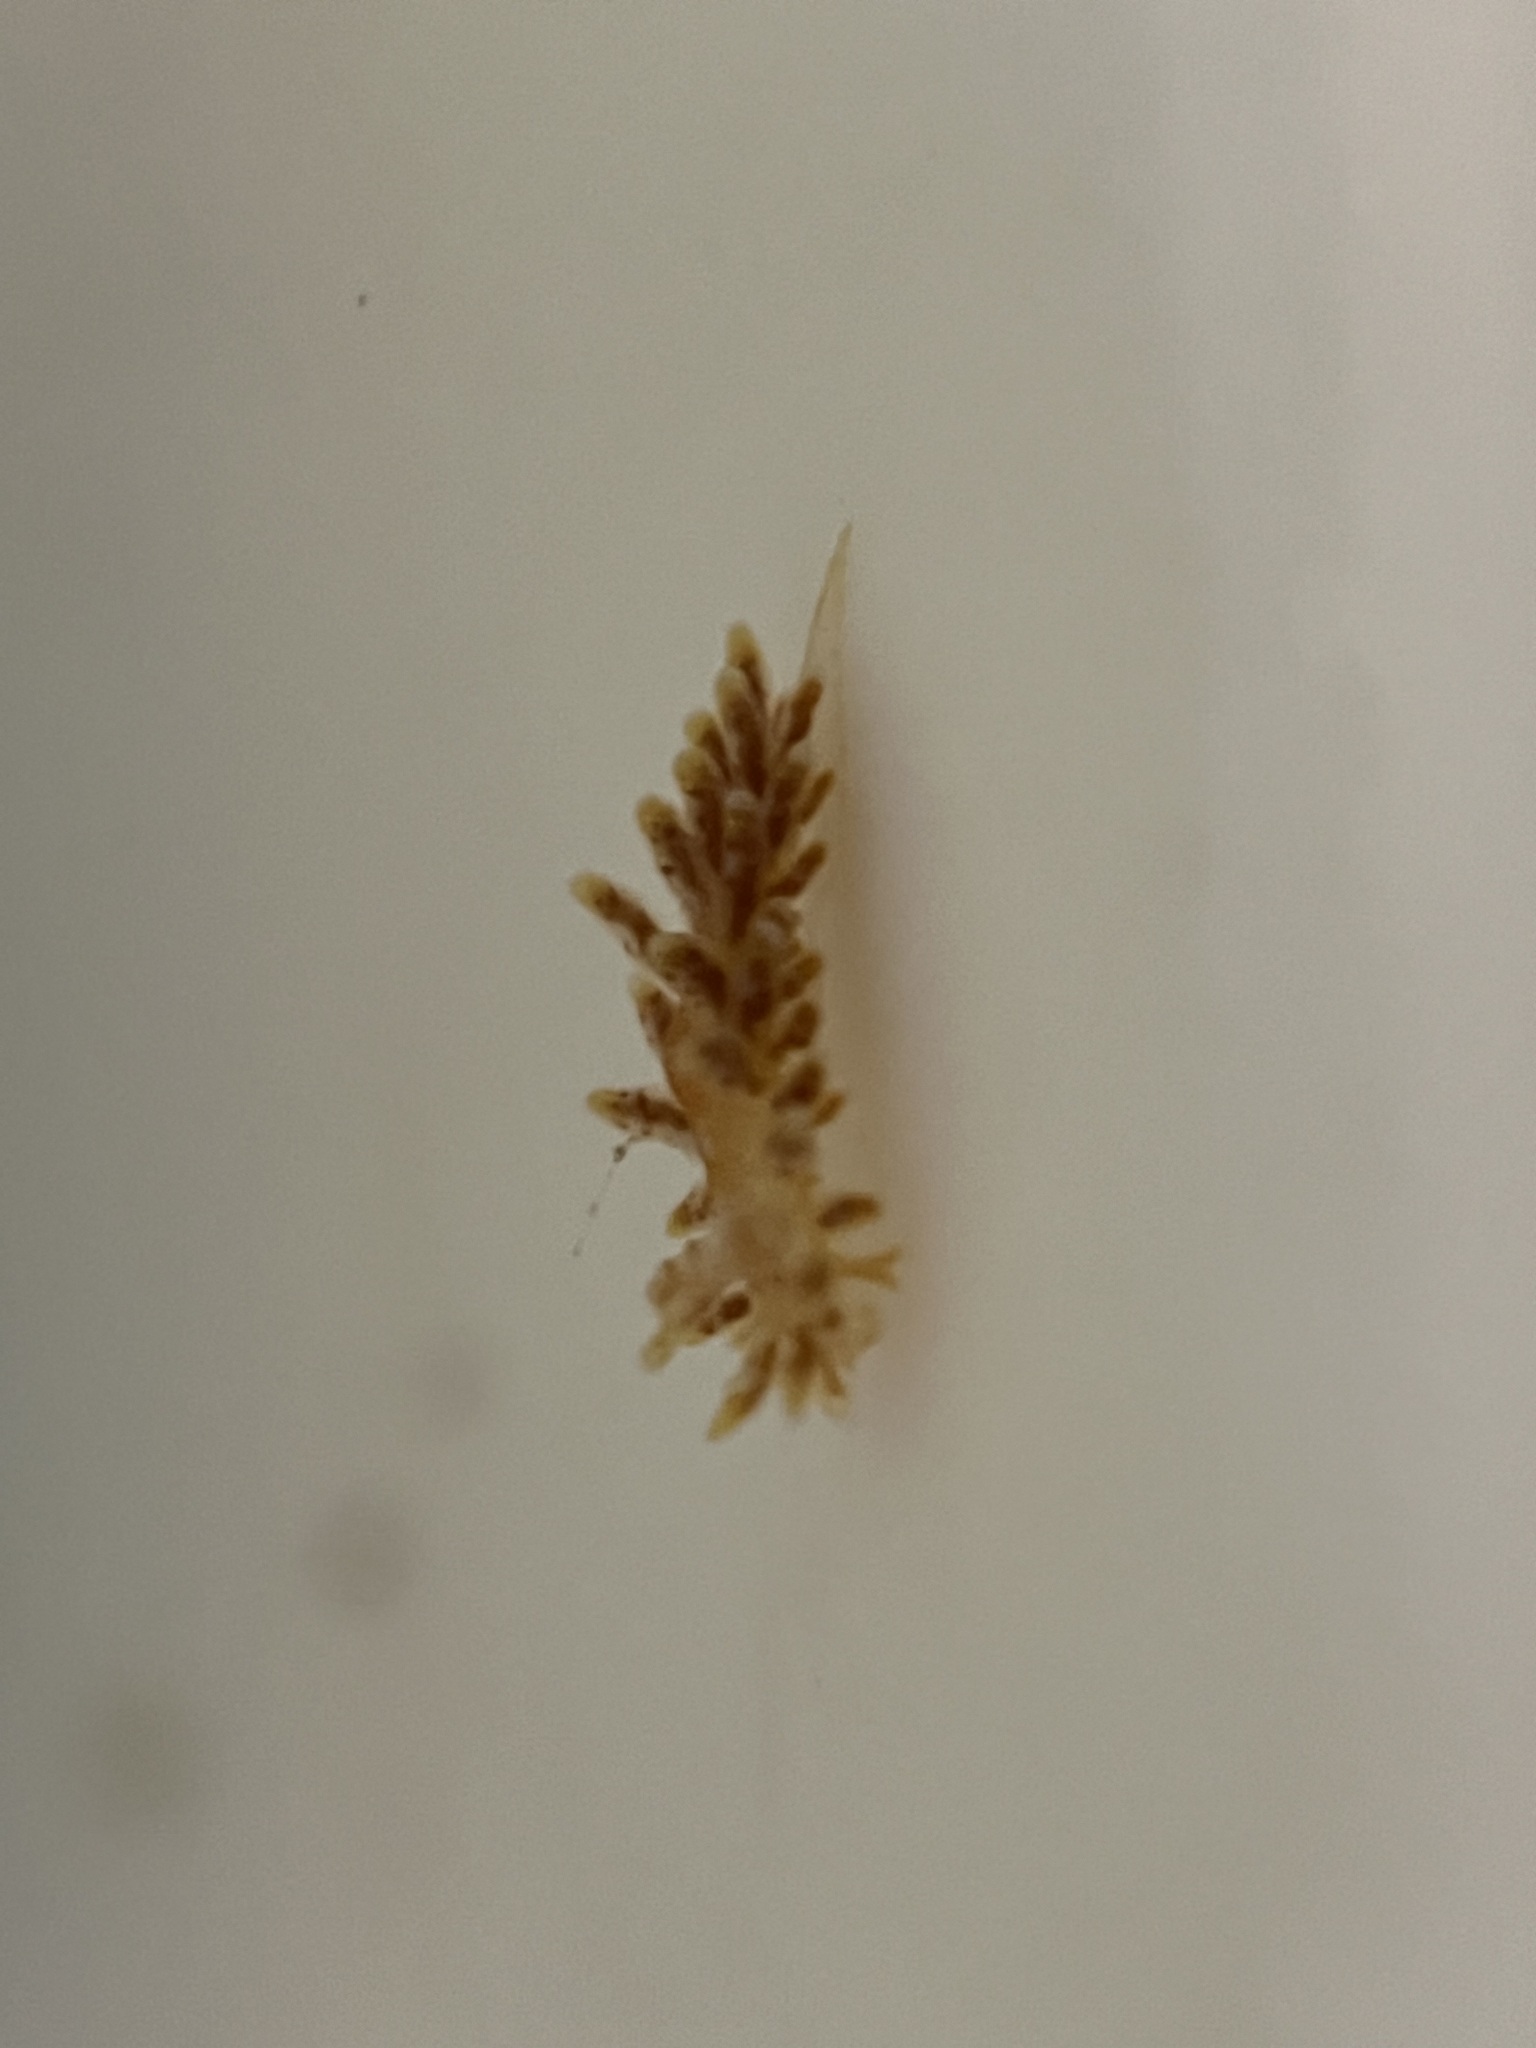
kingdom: Animalia
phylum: Mollusca
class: Gastropoda
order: Nudibranchia
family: Proctonotidae
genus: Caldukia
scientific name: Caldukia affinis
